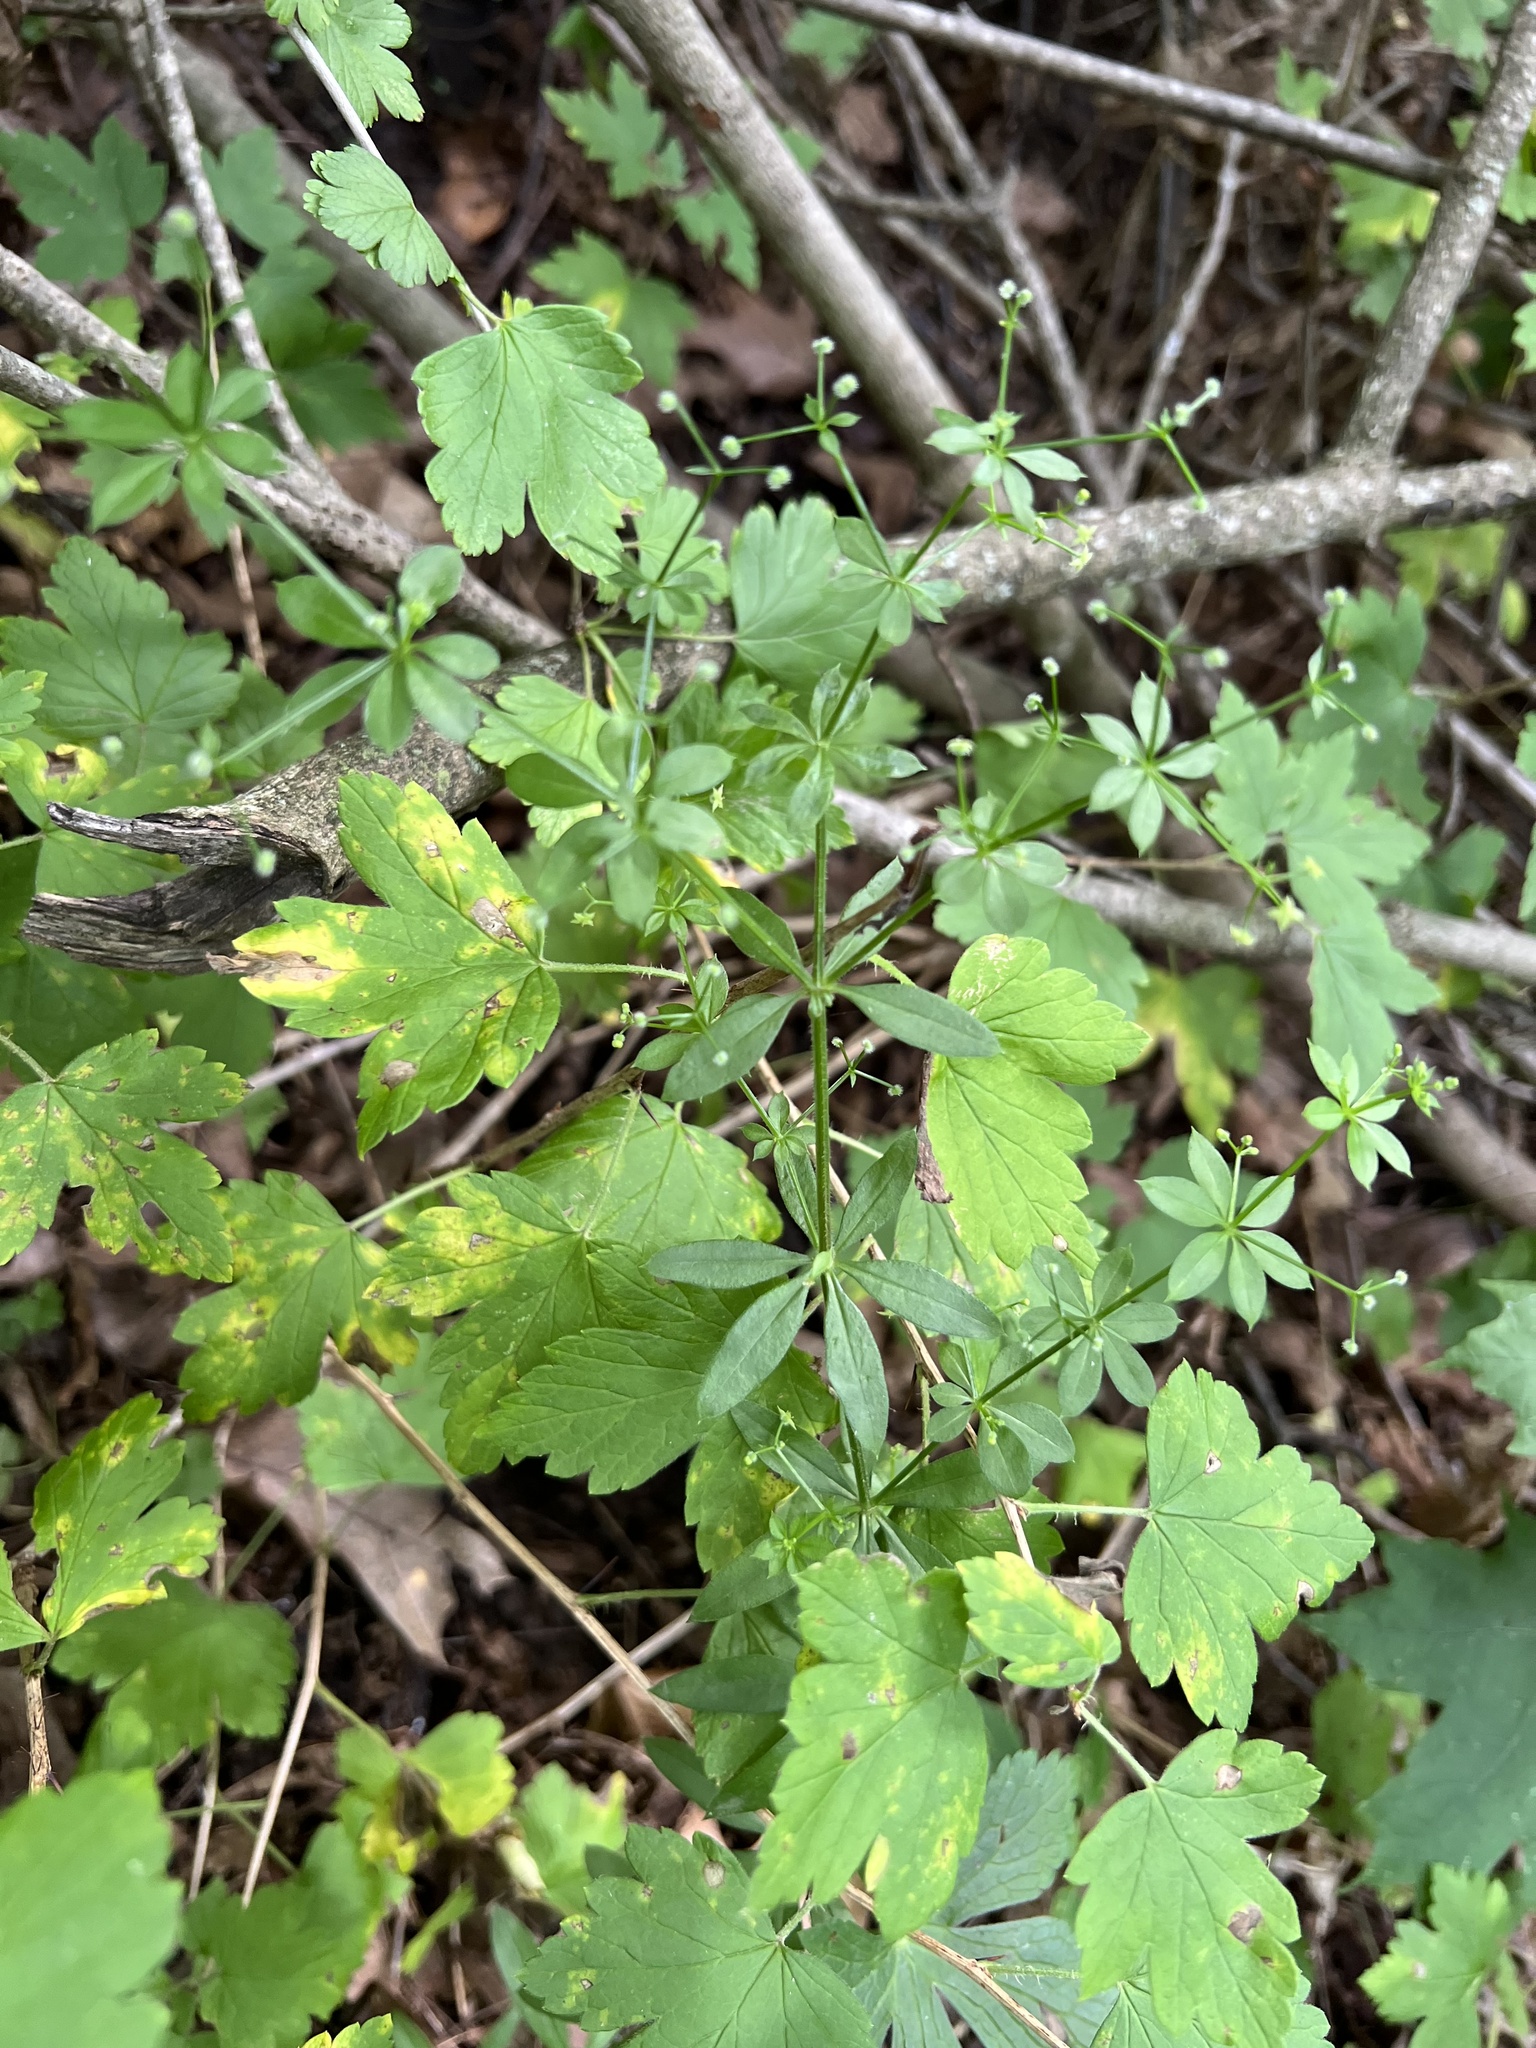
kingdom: Plantae
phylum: Tracheophyta
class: Magnoliopsida
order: Gentianales
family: Rubiaceae
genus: Galium
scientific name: Galium triflorum
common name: Fragrant bedstraw
